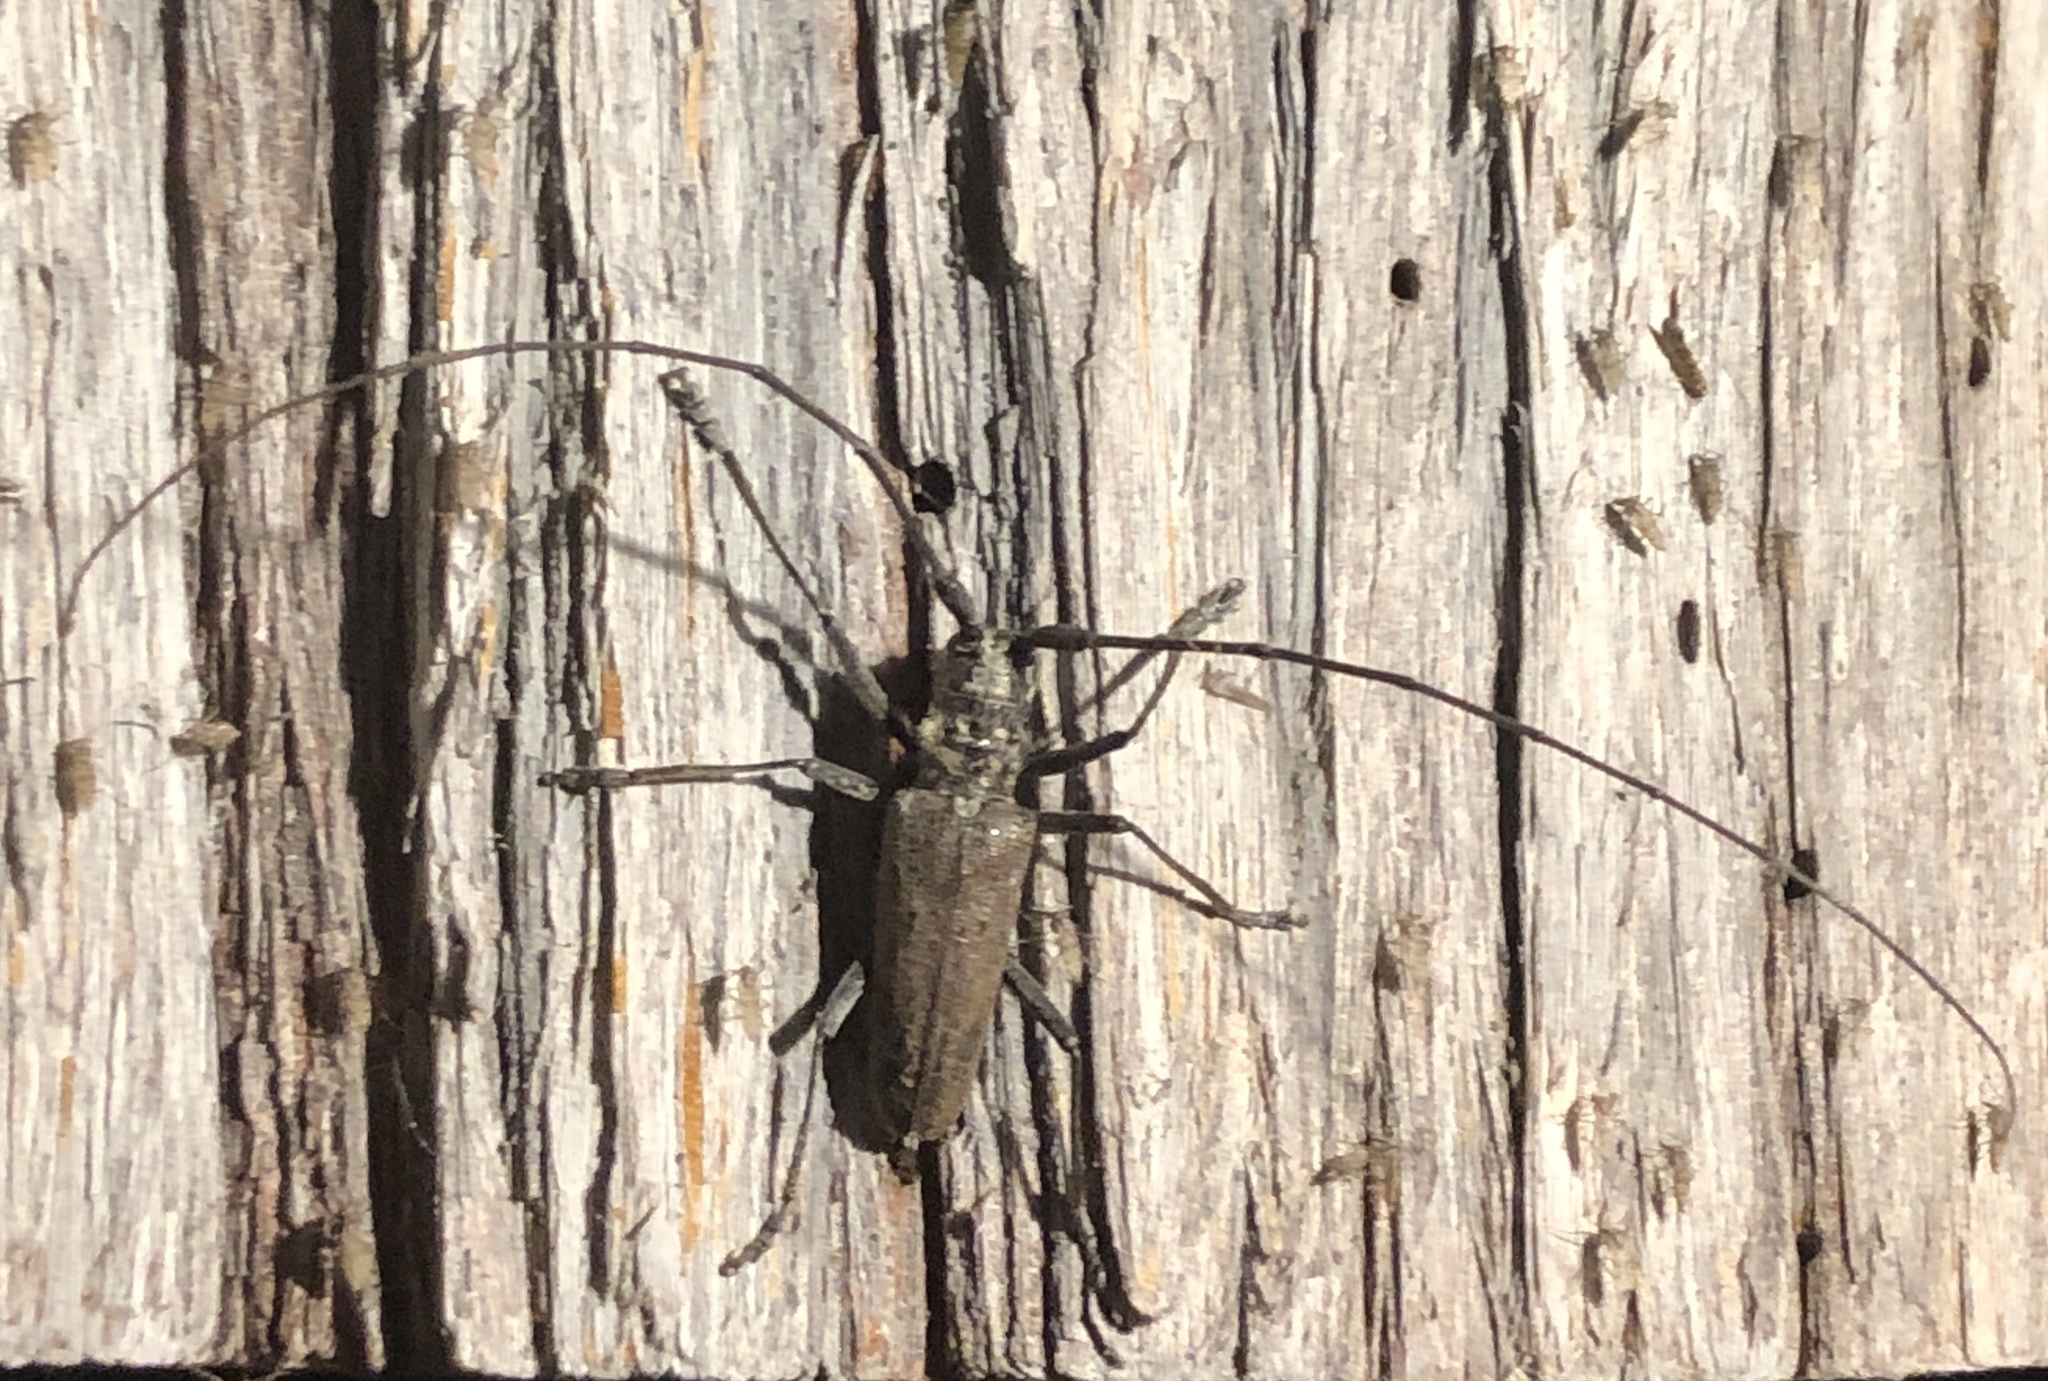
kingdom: Animalia
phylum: Arthropoda
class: Insecta
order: Coleoptera
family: Cerambycidae
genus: Monochamus
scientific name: Monochamus notatus
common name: Northeastern pine sawyer beetle
